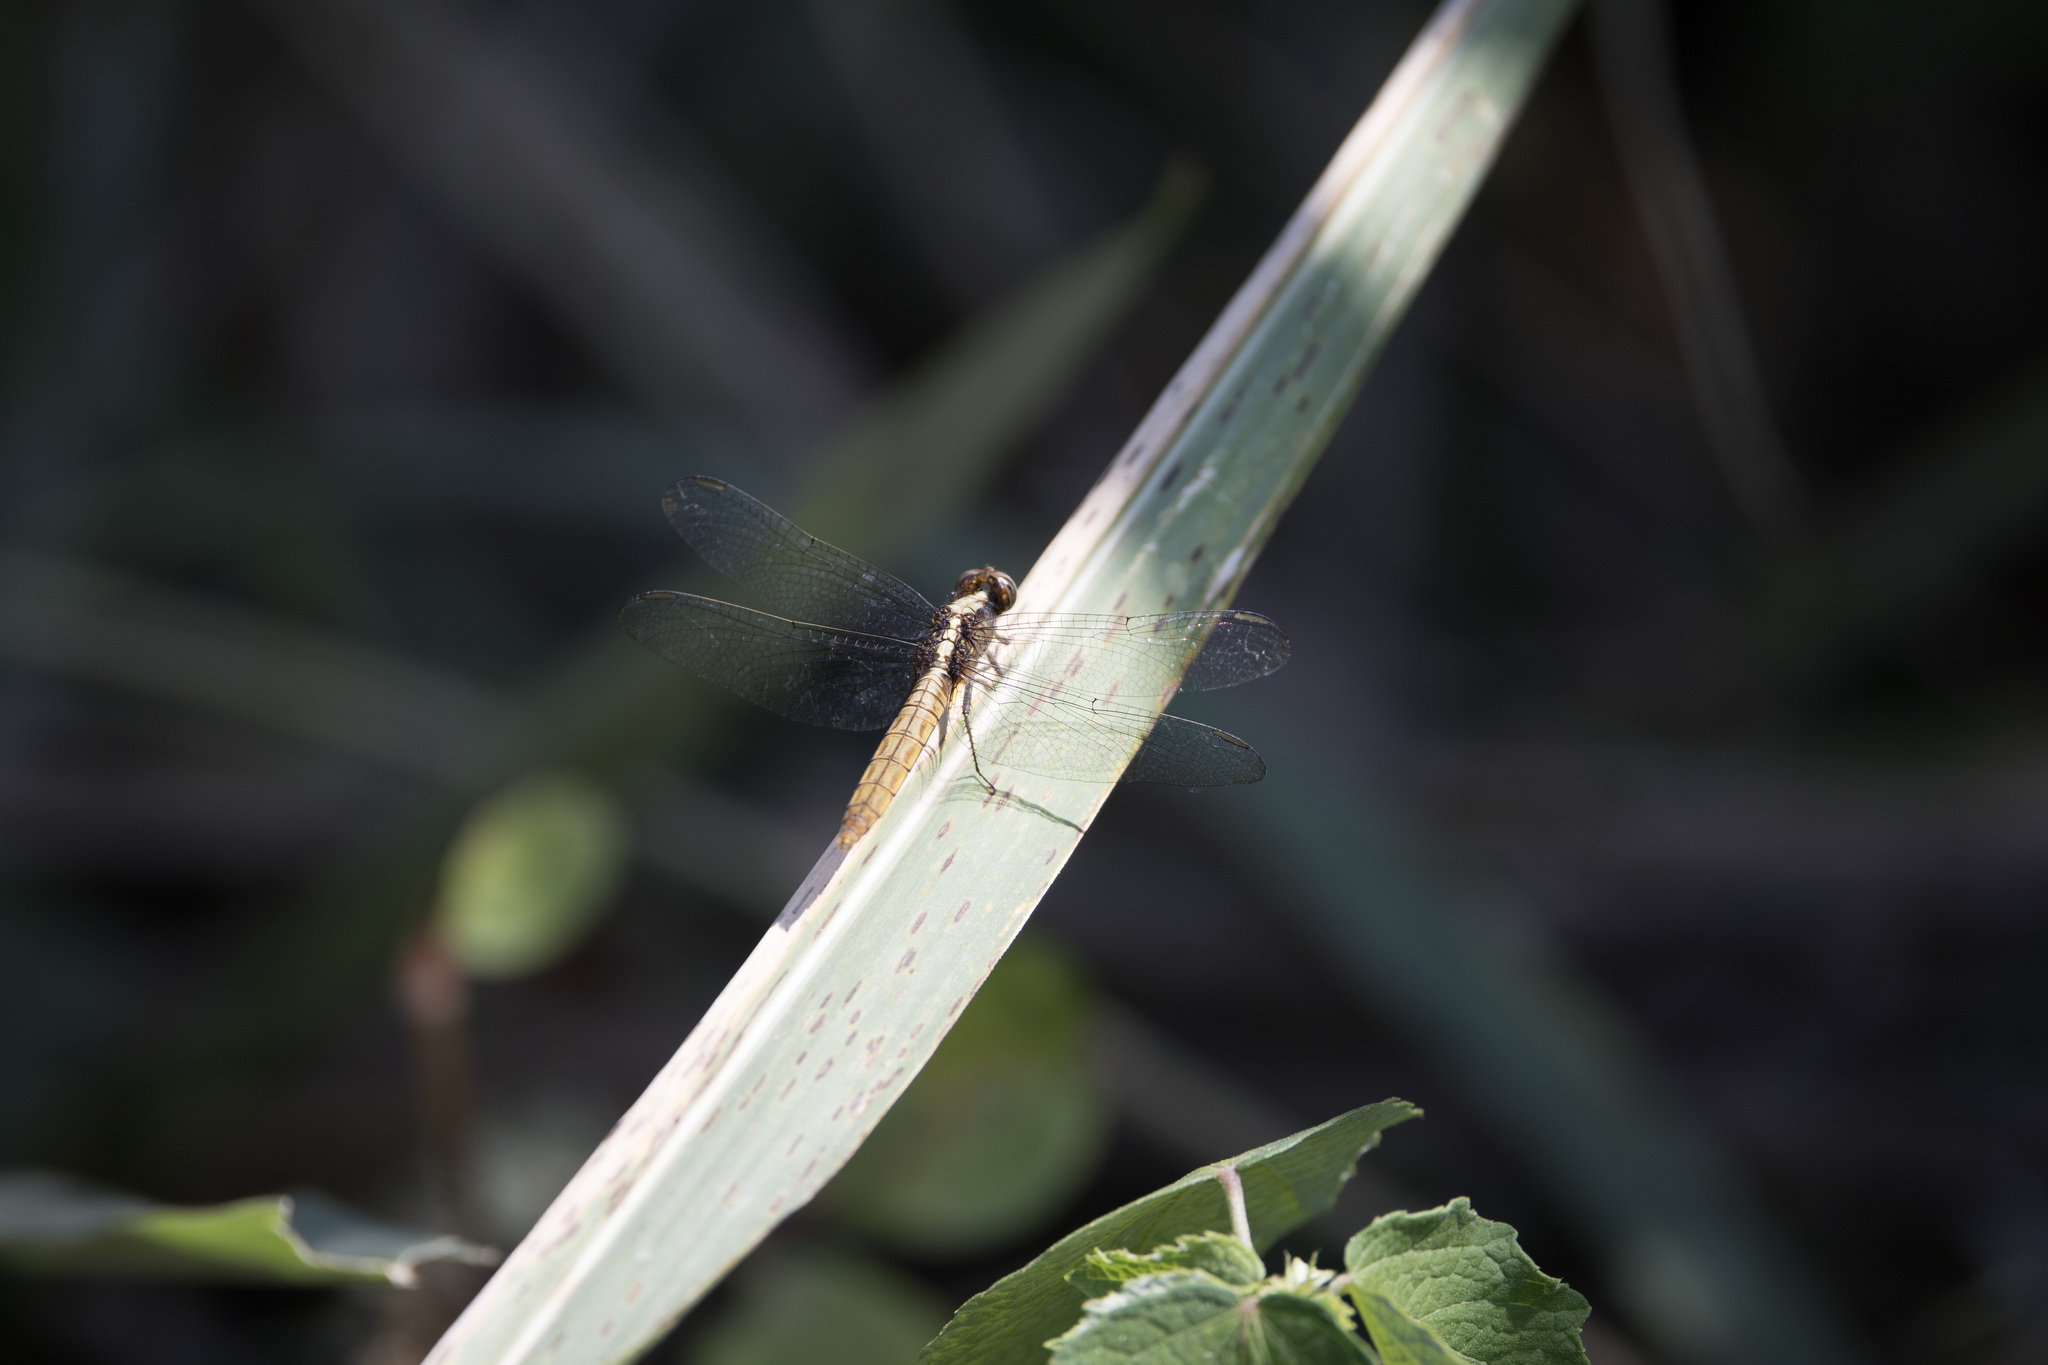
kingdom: Animalia
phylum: Arthropoda
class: Insecta
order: Odonata
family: Libellulidae
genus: Erythemis
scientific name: Erythemis peruviana
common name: Flame-tailed pondhawk
